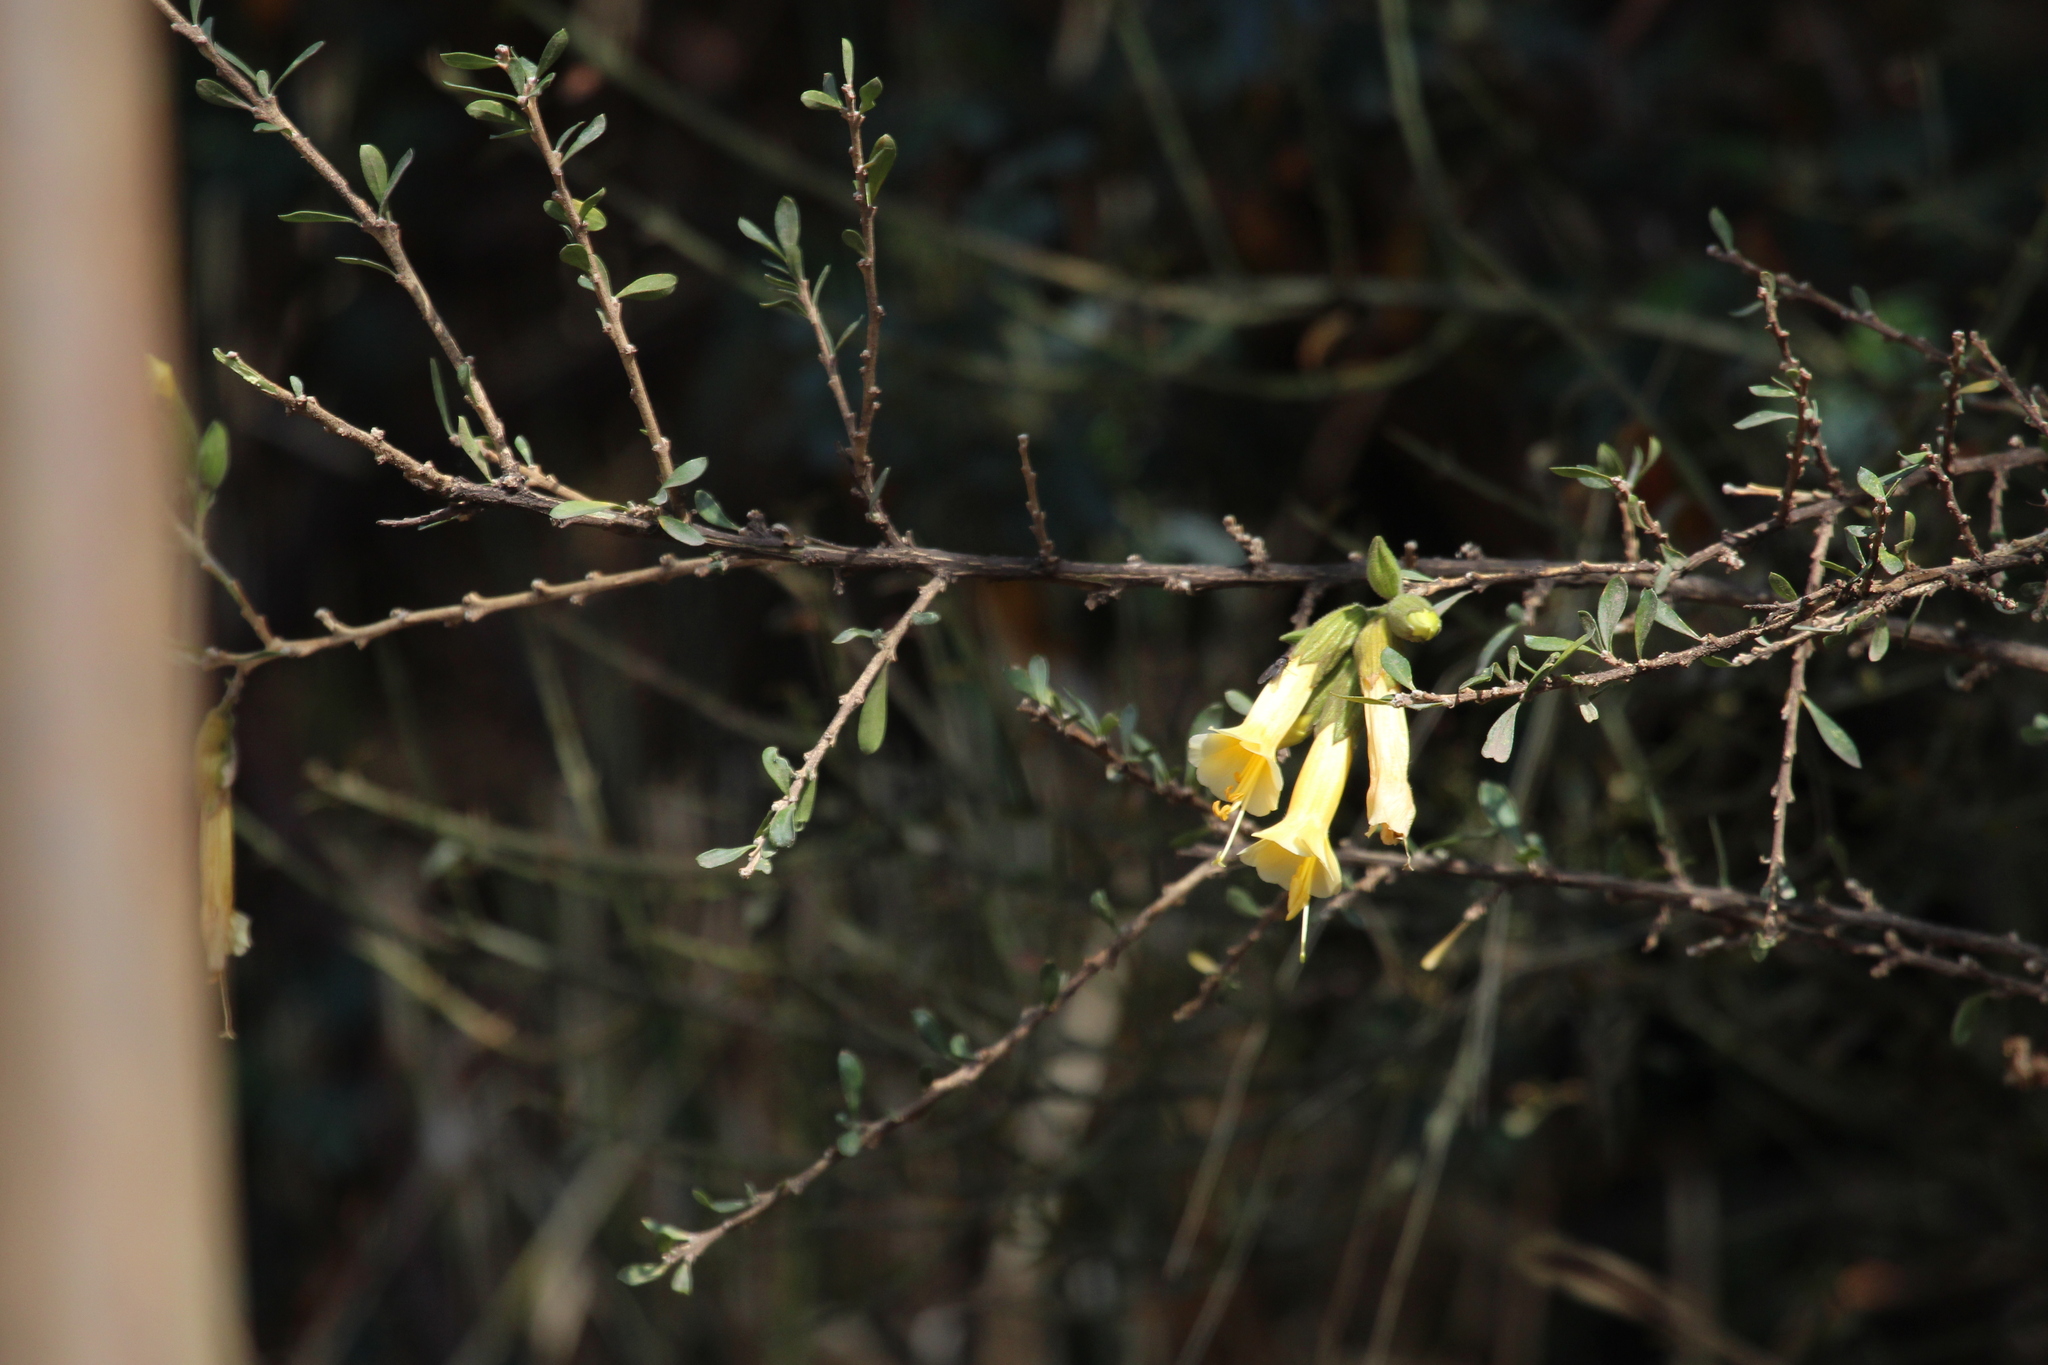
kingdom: Plantae
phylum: Tracheophyta
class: Magnoliopsida
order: Ericales
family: Polemoniaceae
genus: Cantua
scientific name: Cantua buxifolia
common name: Sacred-flower-of-the-incas
